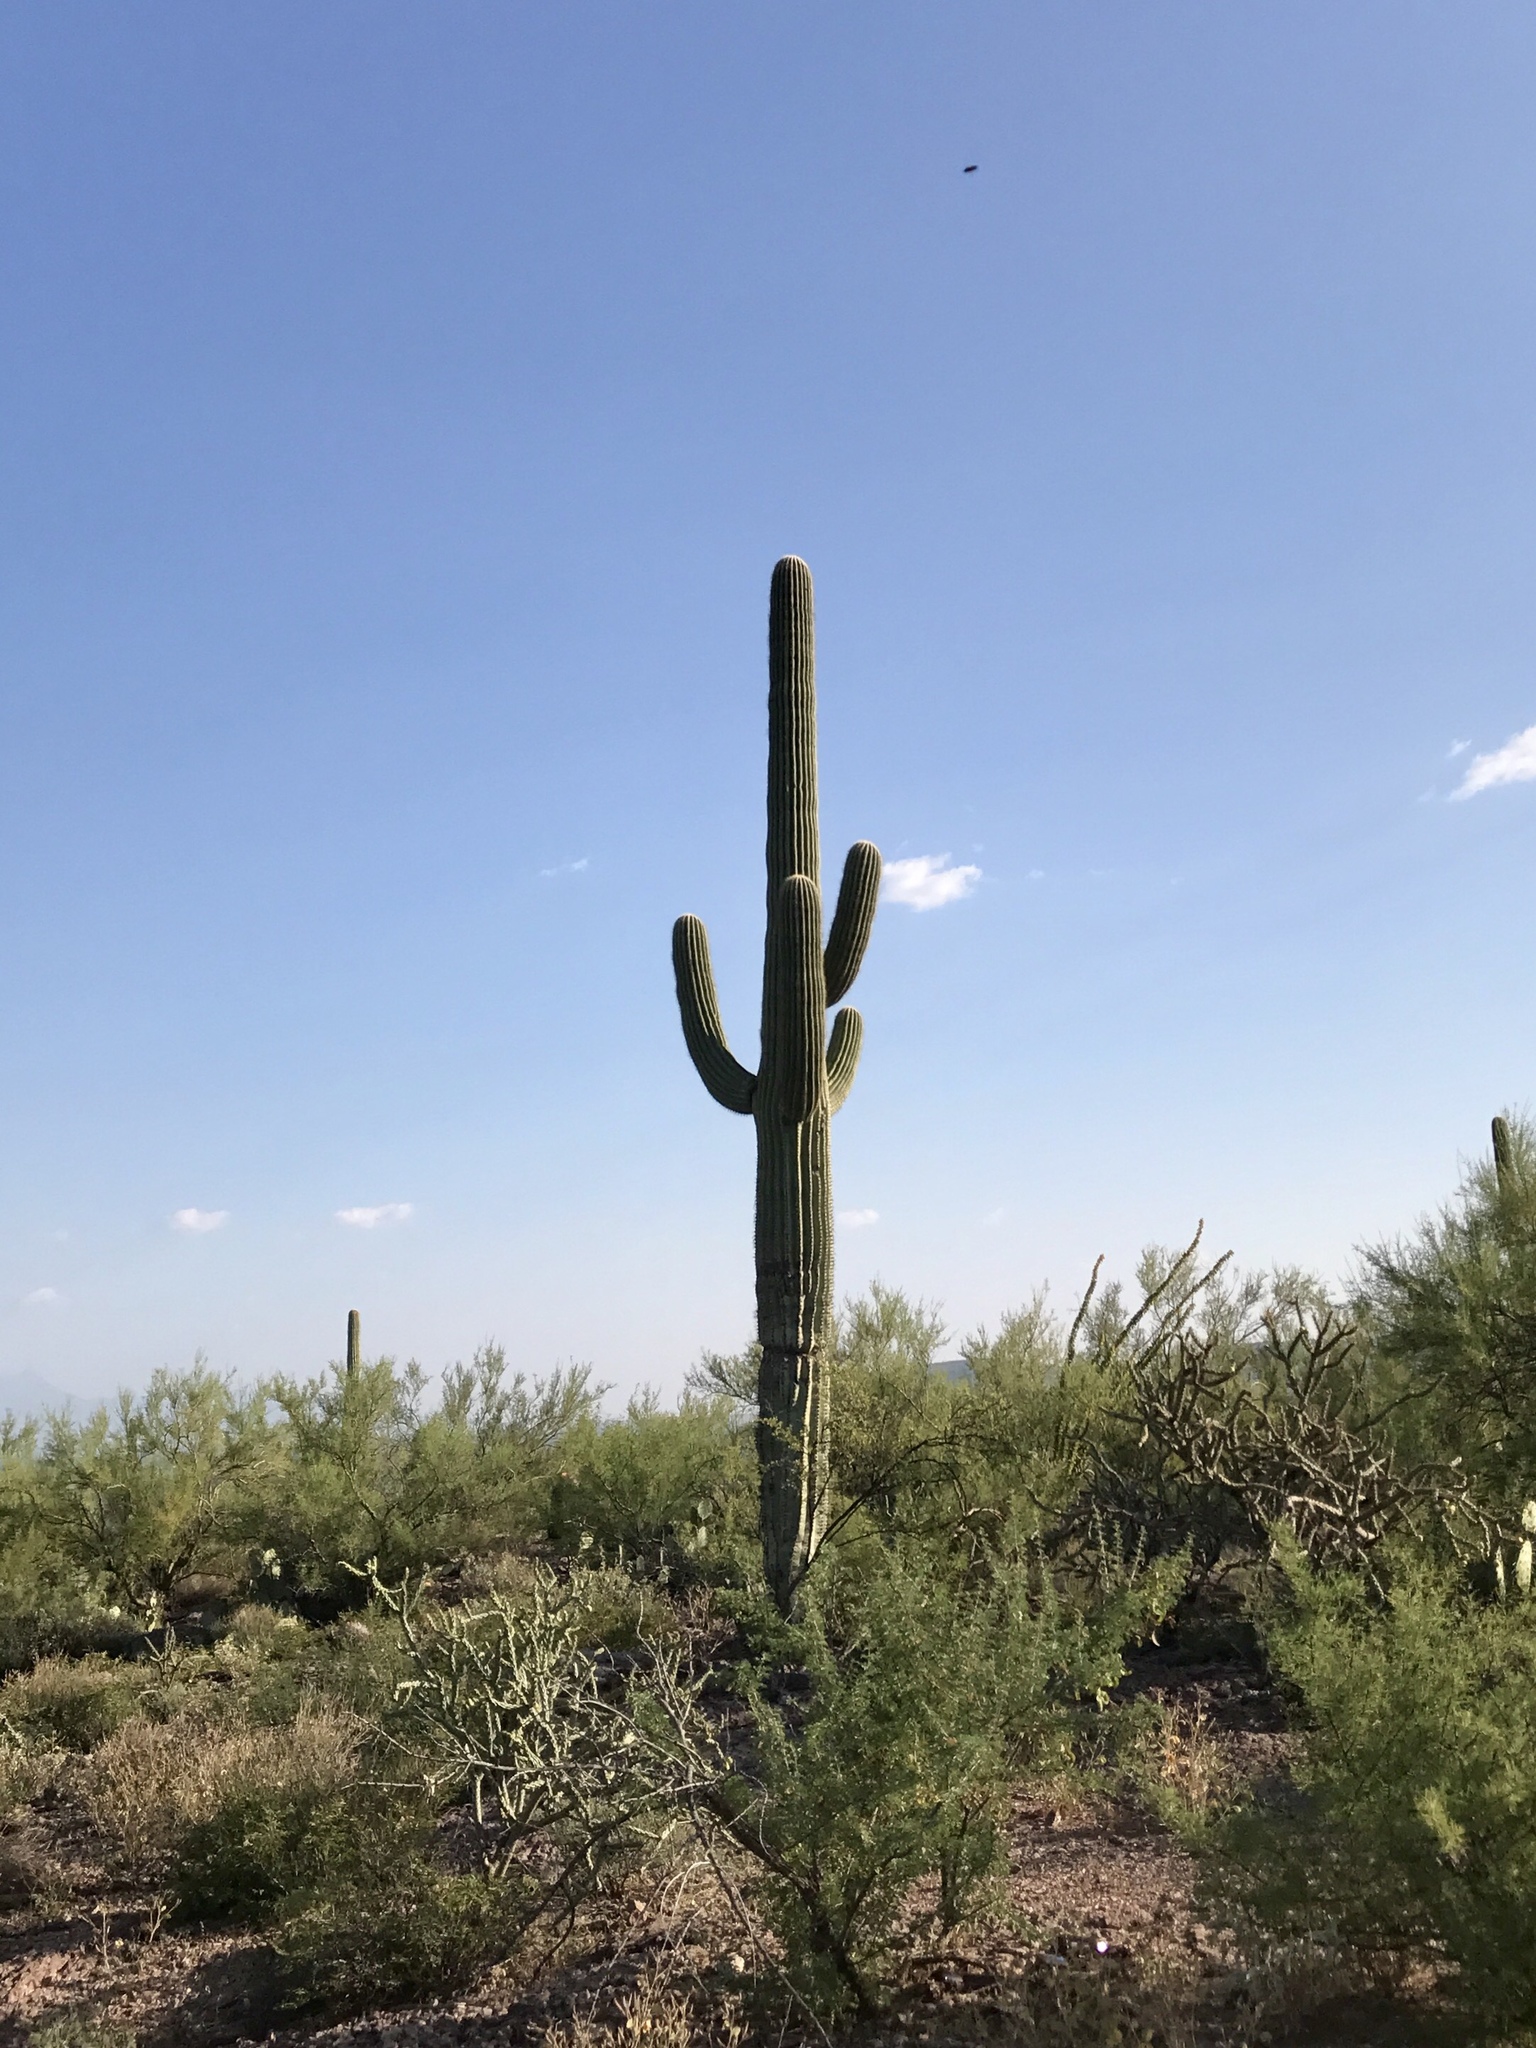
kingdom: Plantae
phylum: Tracheophyta
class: Magnoliopsida
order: Caryophyllales
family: Cactaceae
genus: Carnegiea
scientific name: Carnegiea gigantea
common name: Saguaro
